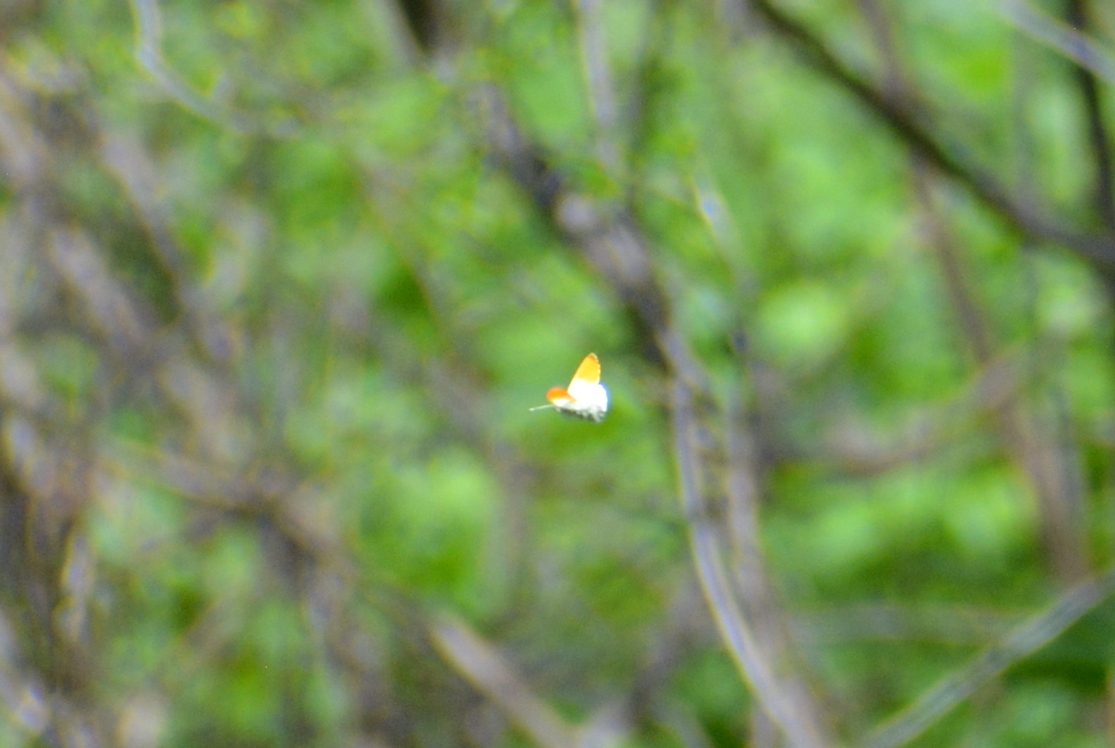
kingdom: Animalia
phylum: Arthropoda
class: Insecta
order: Lepidoptera
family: Pieridae
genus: Anthocharis
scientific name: Anthocharis cardamines
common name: Orange-tip
